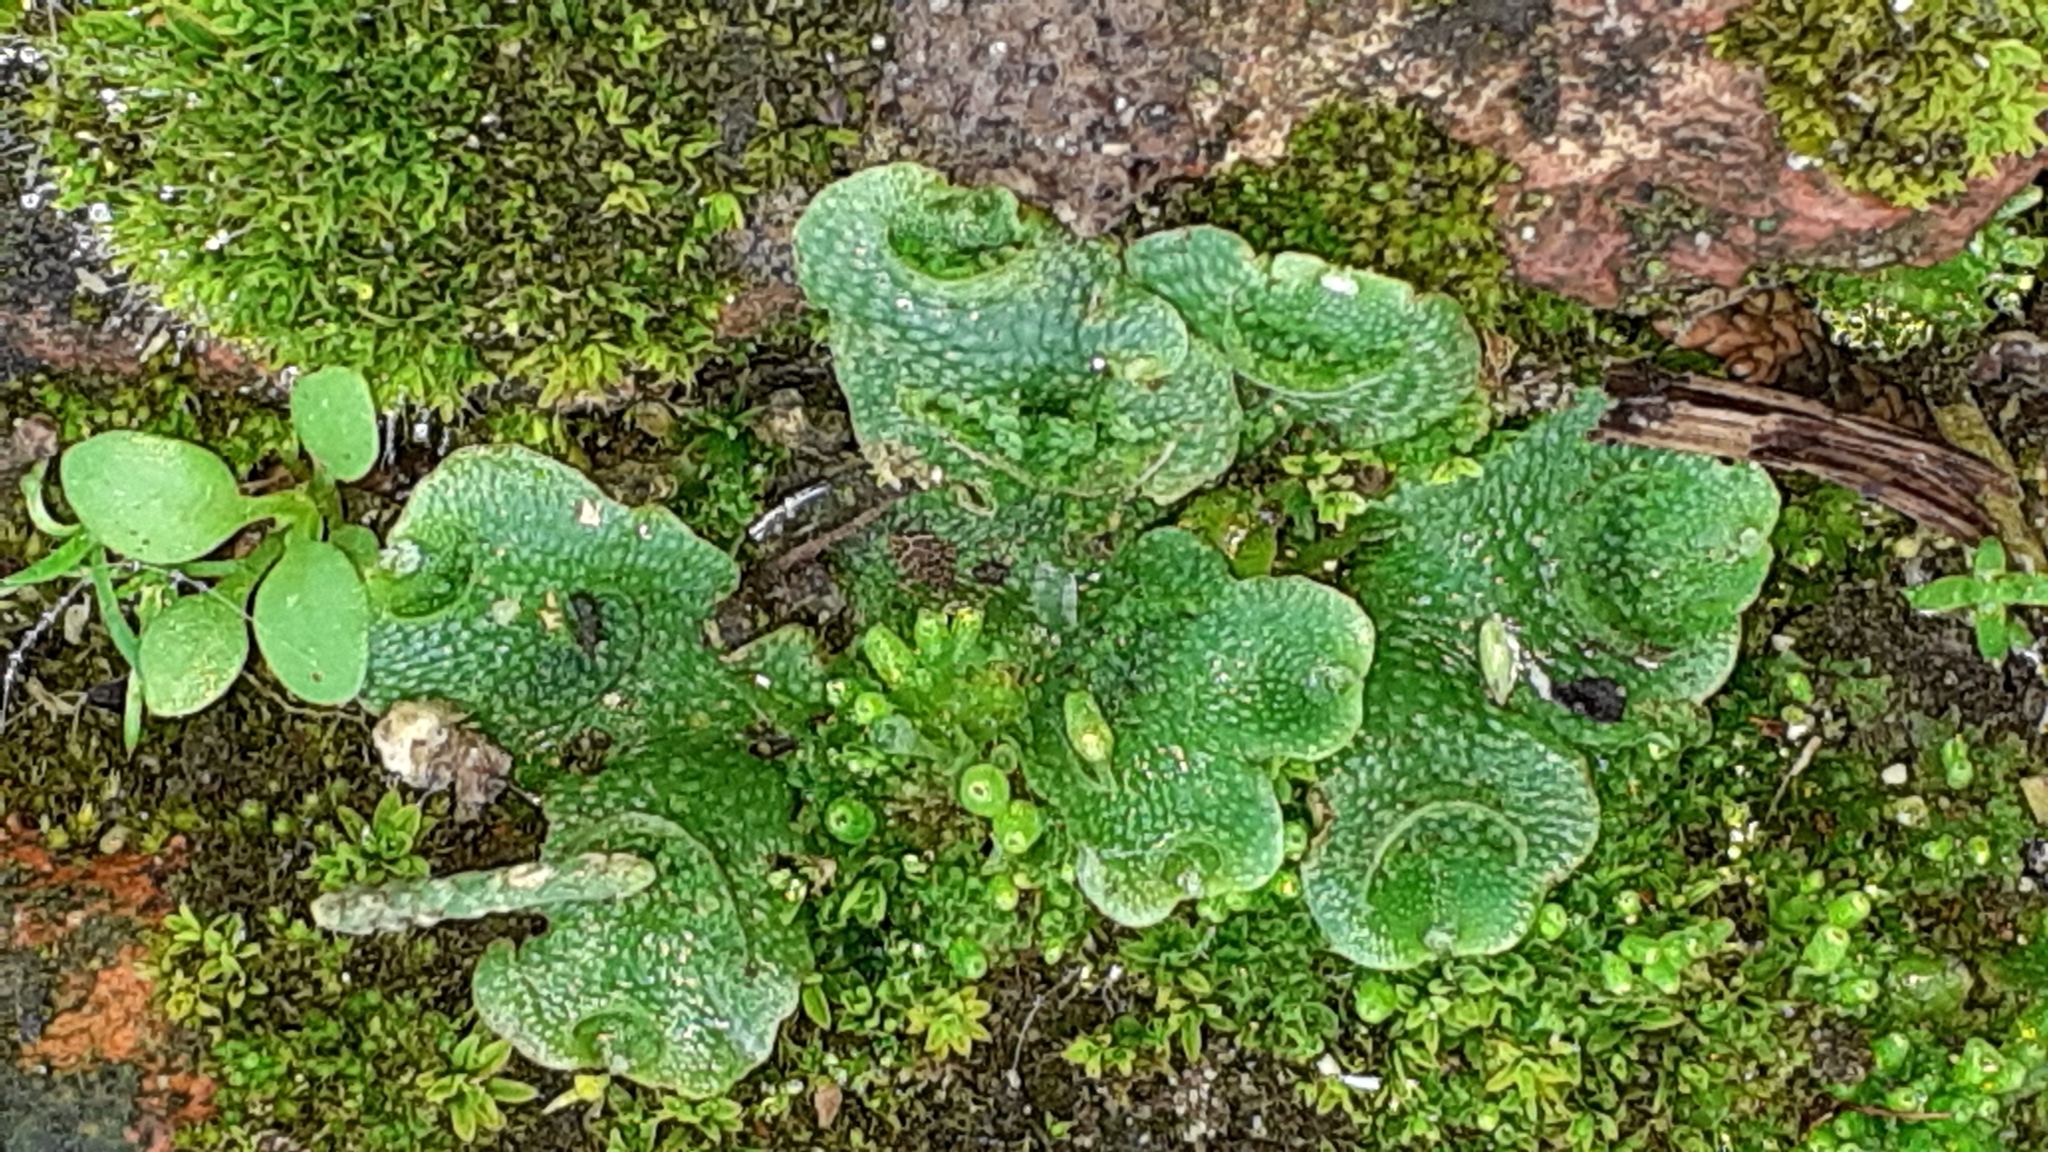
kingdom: Plantae
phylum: Marchantiophyta
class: Marchantiopsida
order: Lunulariales
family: Lunulariaceae
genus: Lunularia
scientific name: Lunularia cruciata
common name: Crescent-cup liverwort
